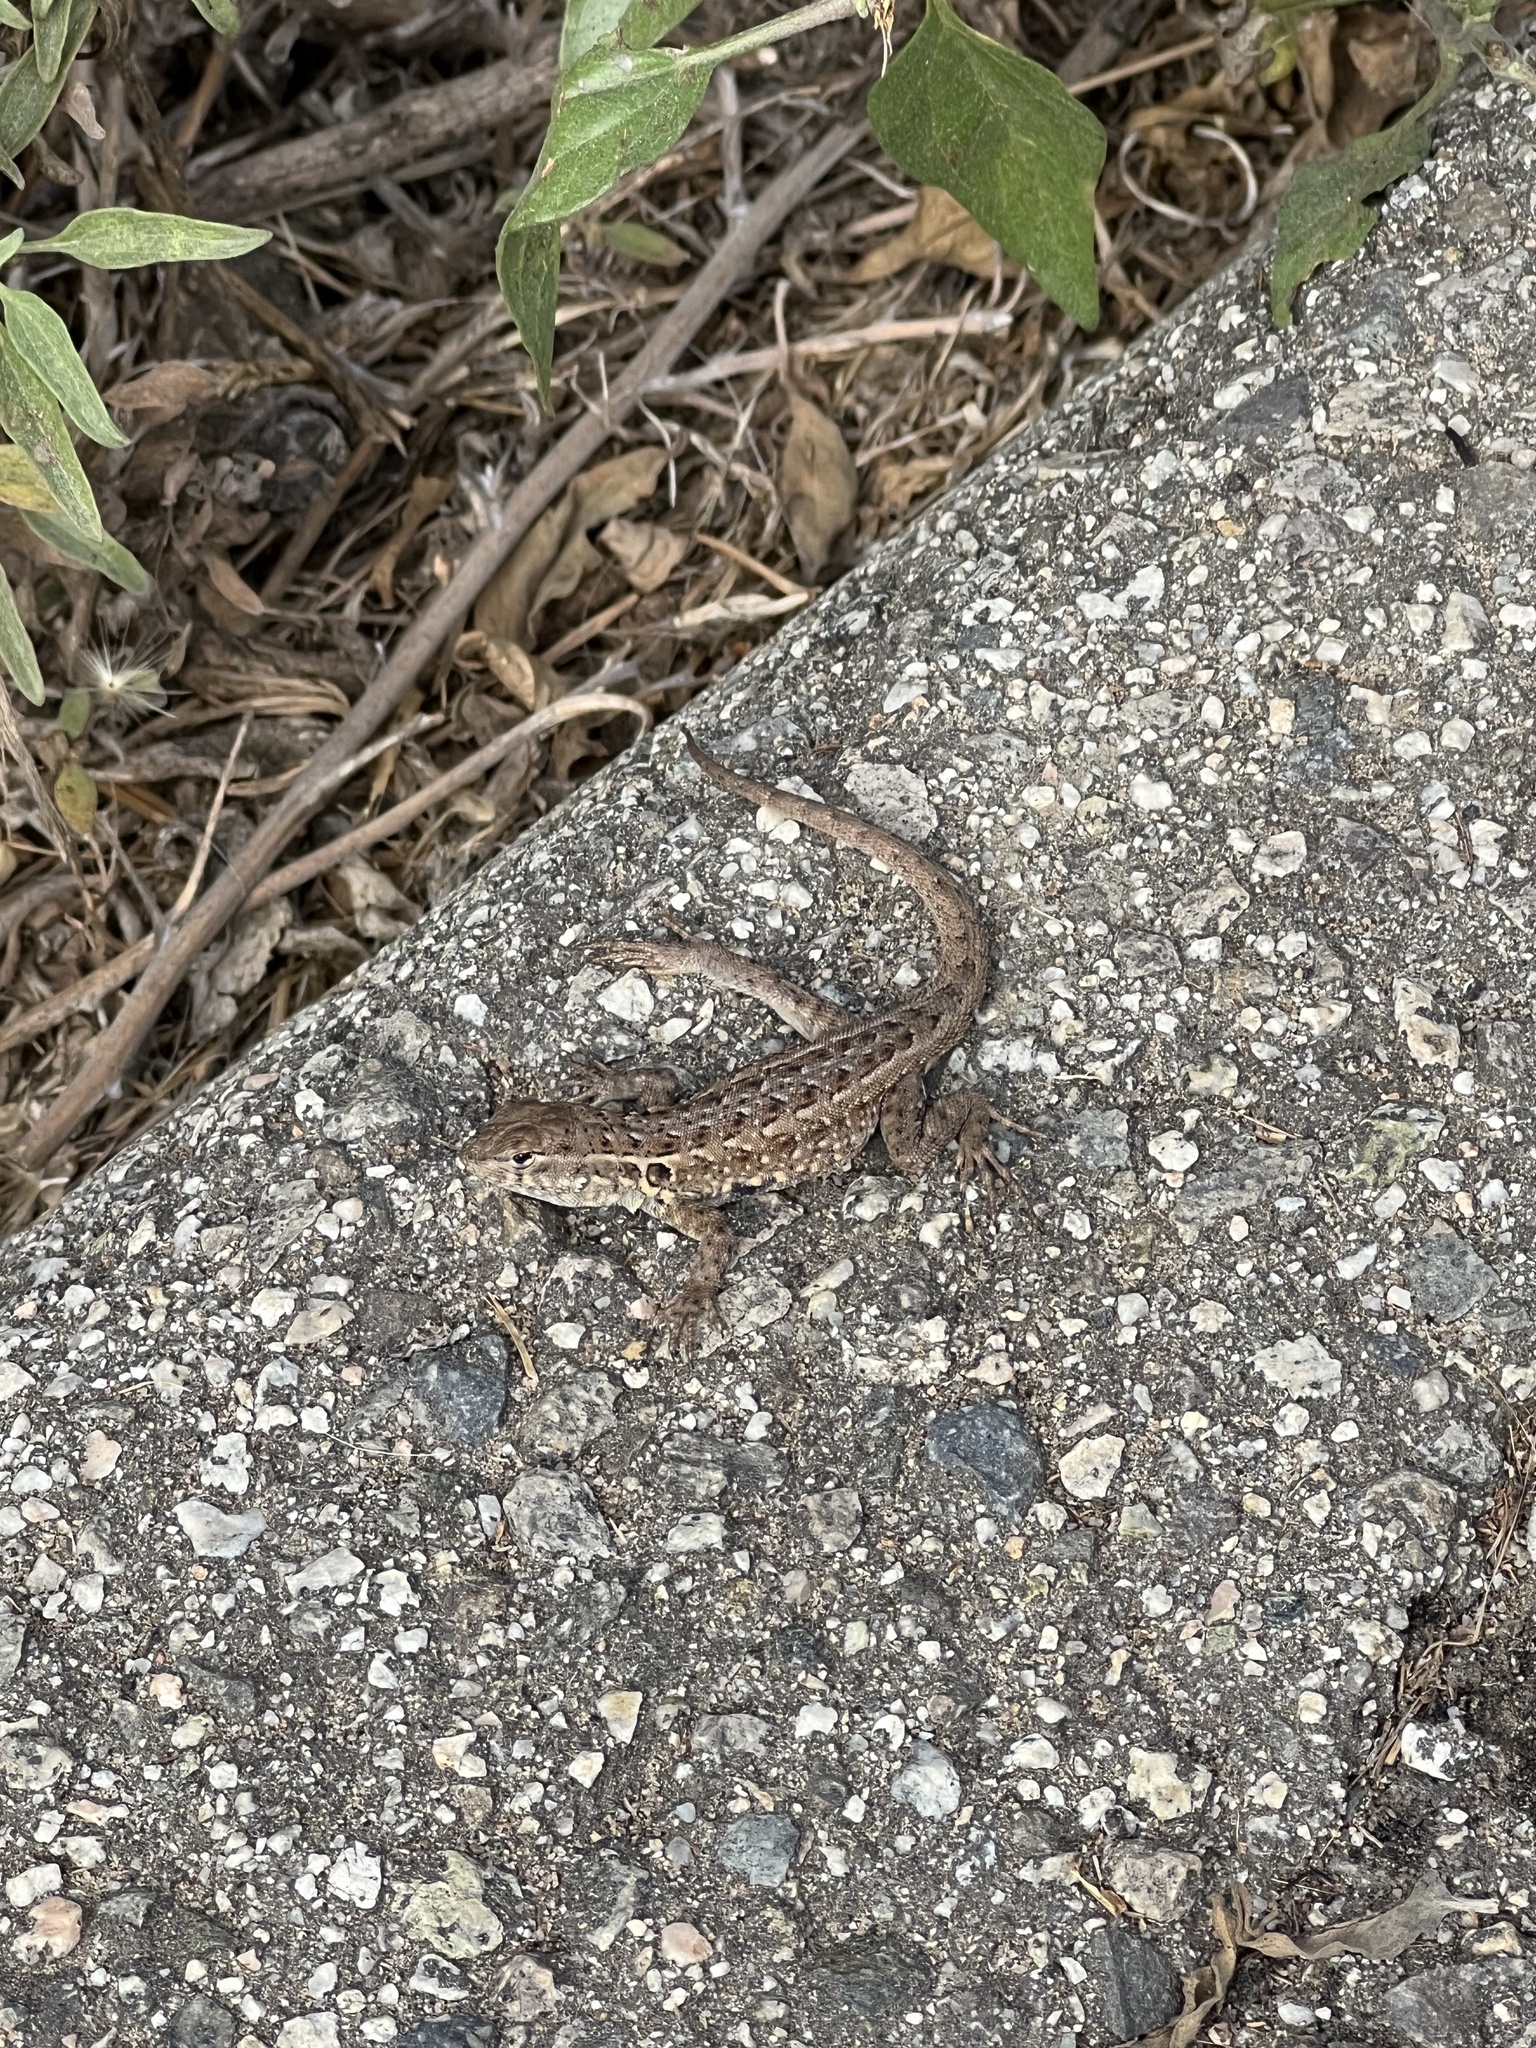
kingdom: Animalia
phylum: Chordata
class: Squamata
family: Phrynosomatidae
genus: Uta
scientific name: Uta stansburiana
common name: Side-blotched lizard
